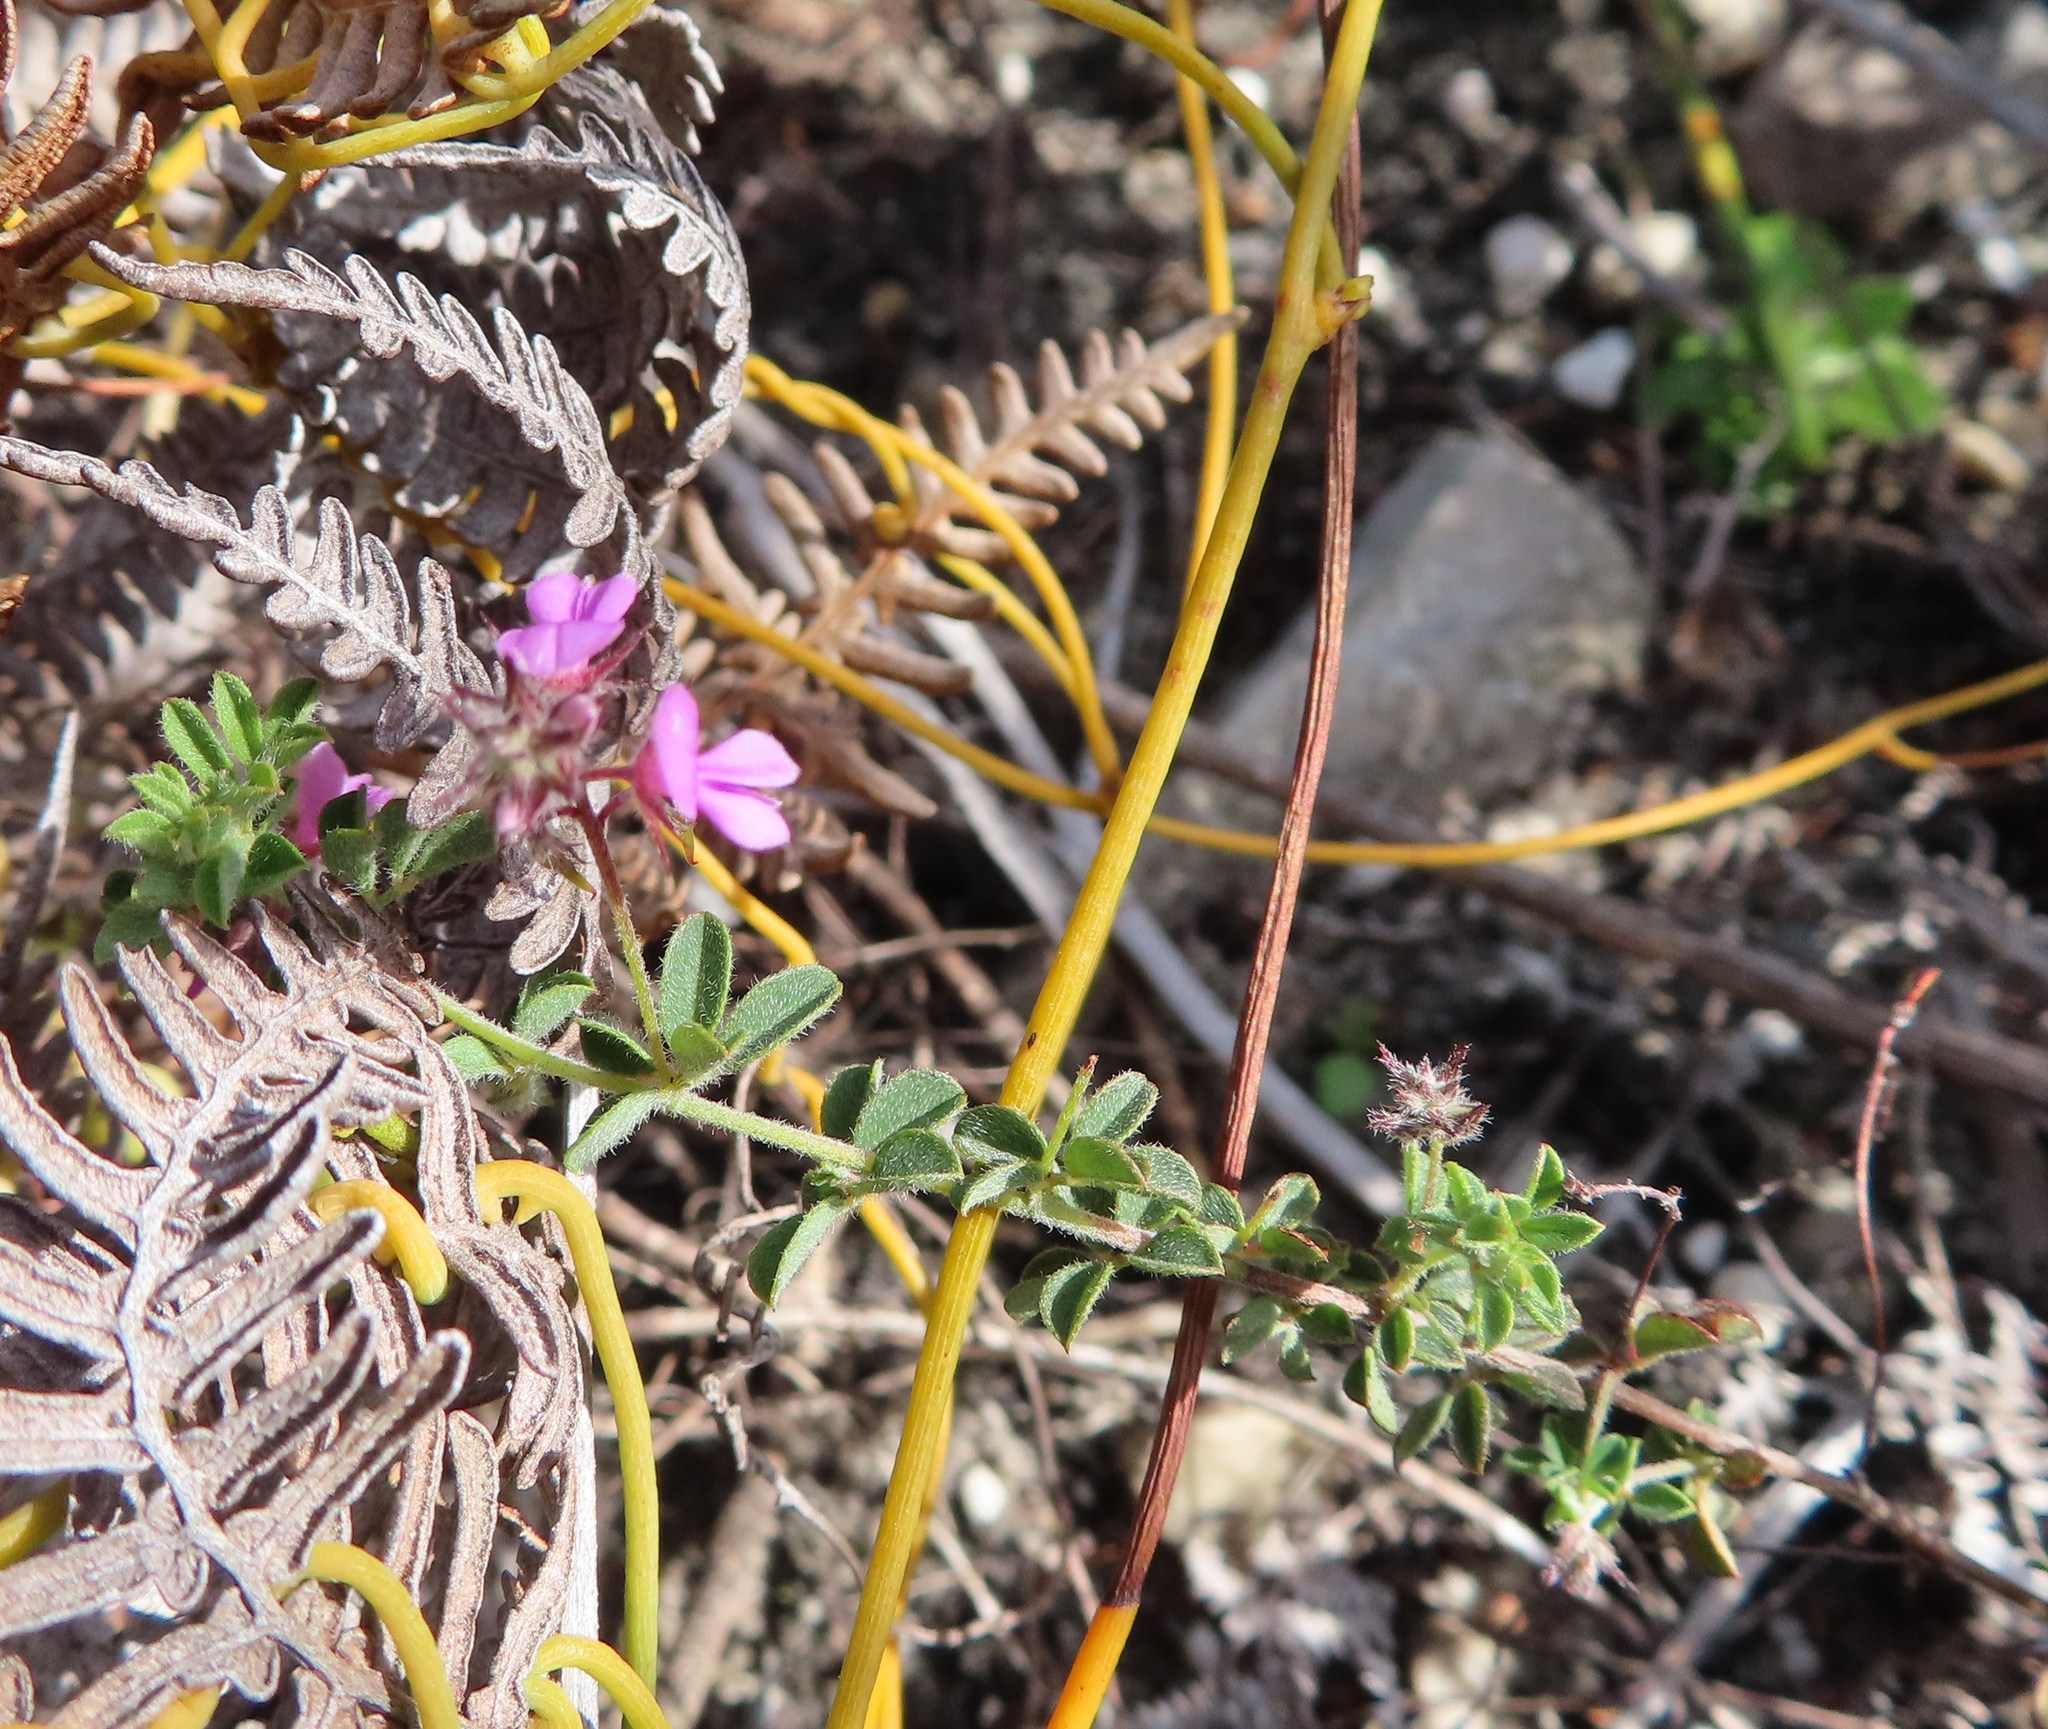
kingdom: Plantae
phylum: Tracheophyta
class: Magnoliopsida
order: Fabales
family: Fabaceae
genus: Indigofera
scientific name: Indigofera alopecuroides
